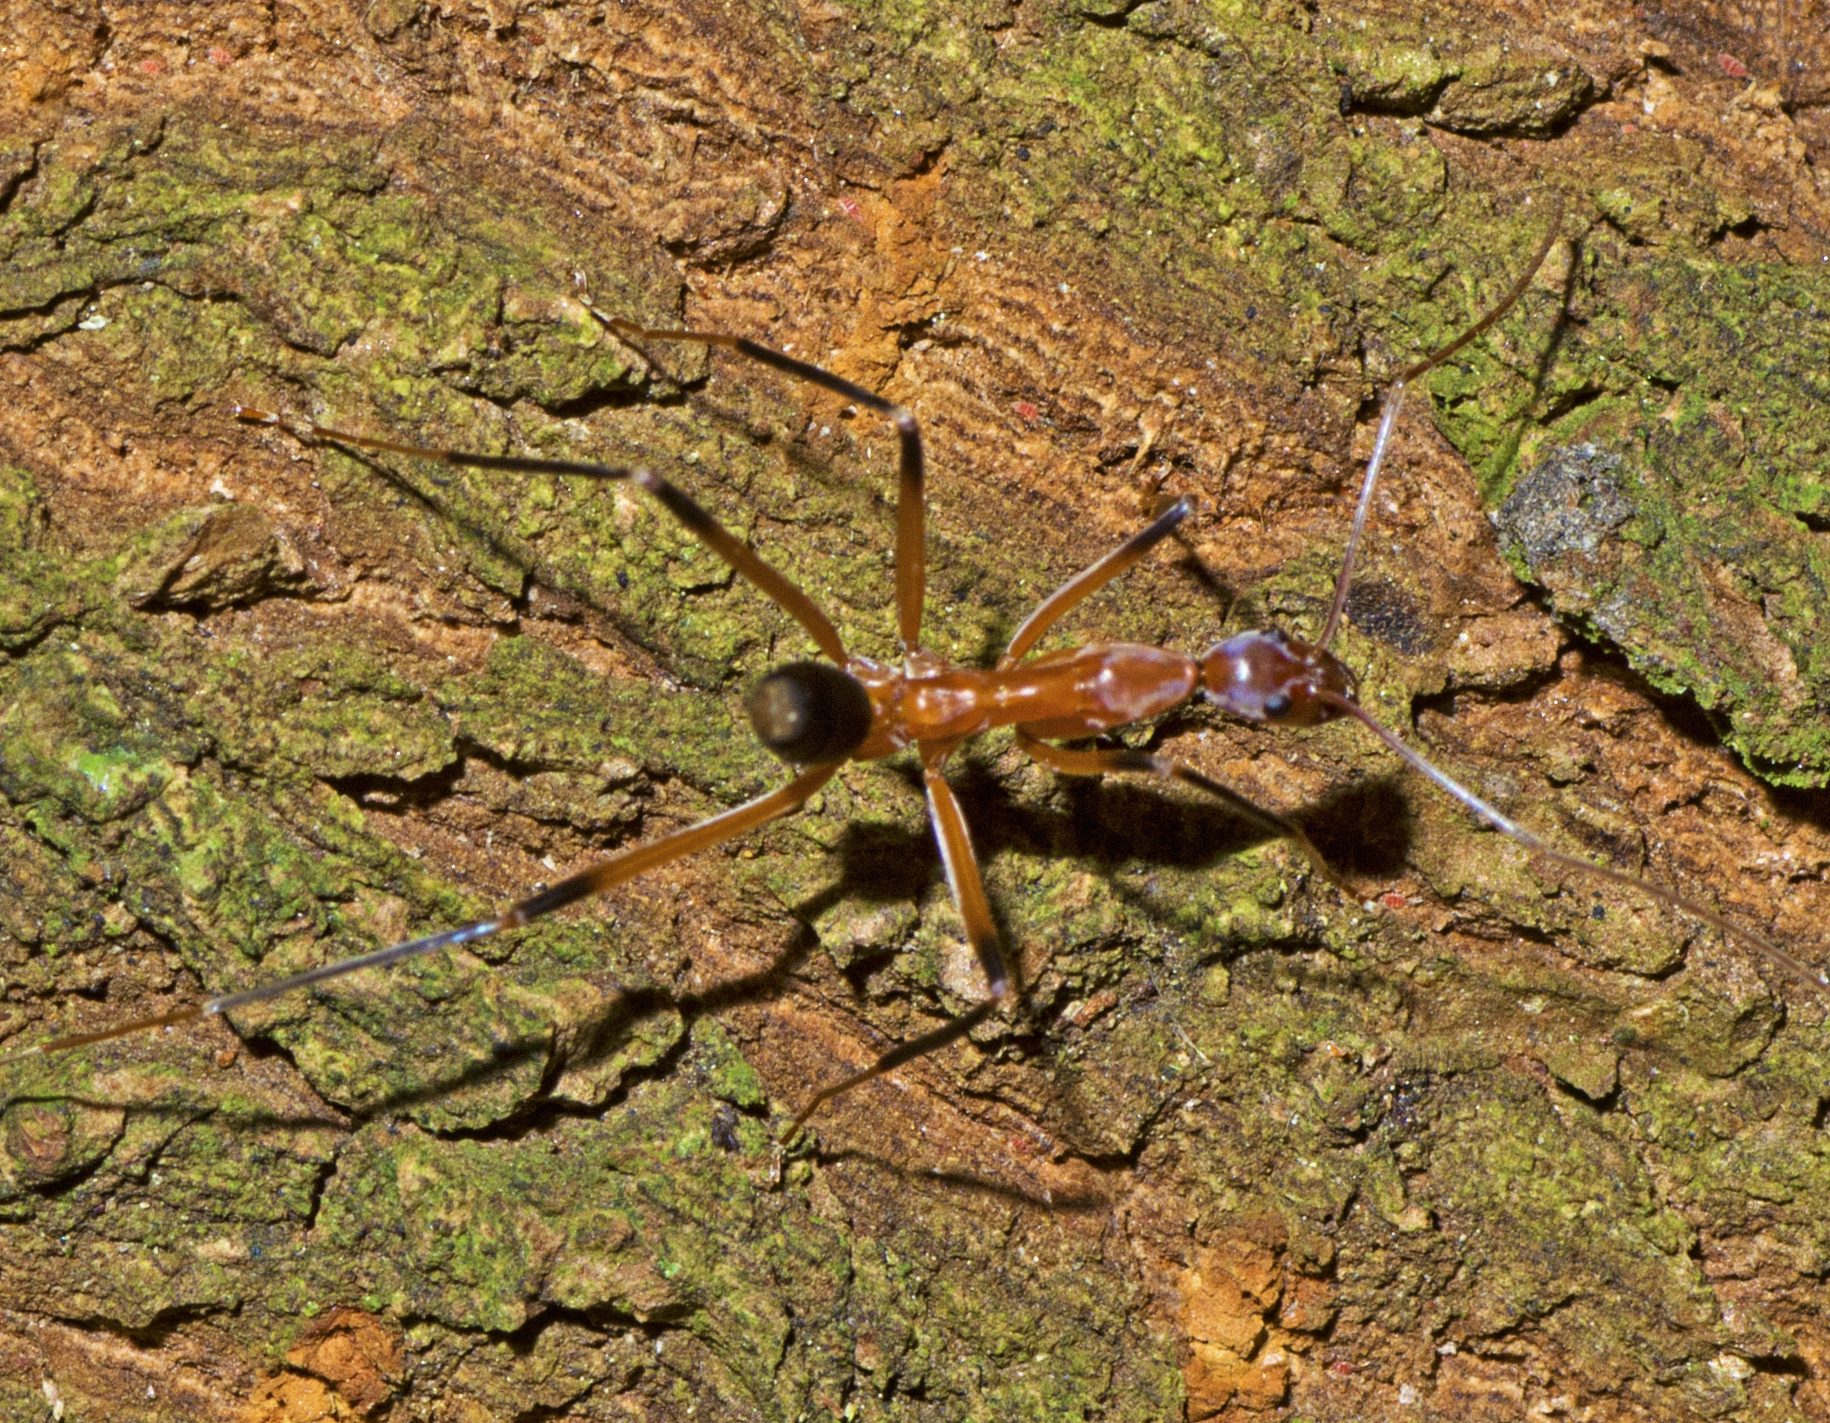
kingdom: Animalia
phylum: Arthropoda
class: Insecta
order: Hymenoptera
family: Formicidae
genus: Leptomyrmex
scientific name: Leptomyrmex cnemidatus
